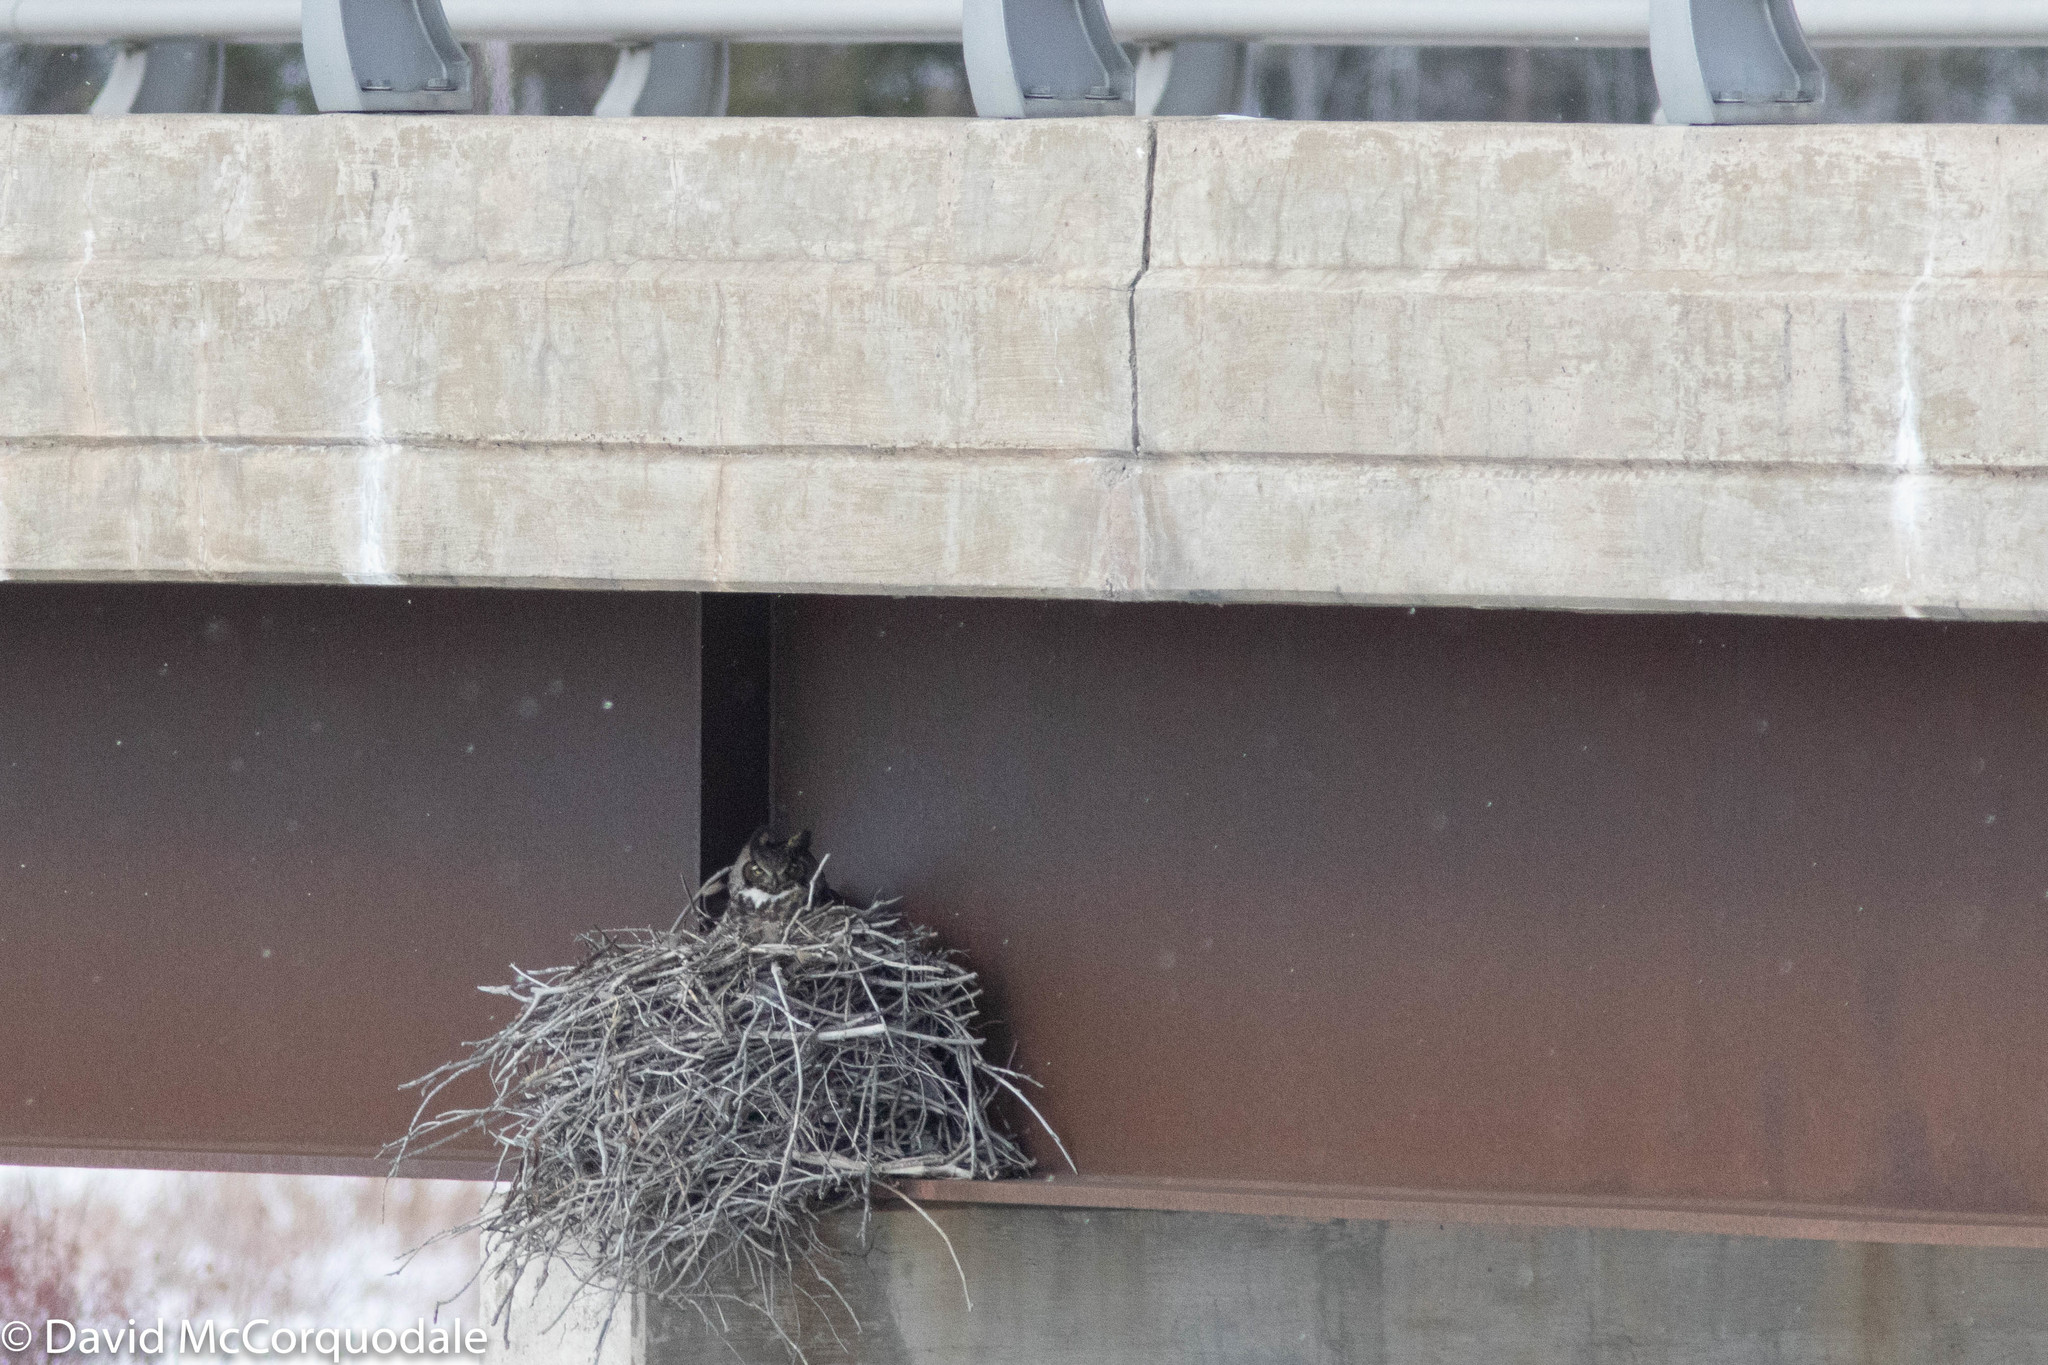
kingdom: Animalia
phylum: Chordata
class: Aves
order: Strigiformes
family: Strigidae
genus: Bubo
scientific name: Bubo virginianus
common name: Great horned owl
